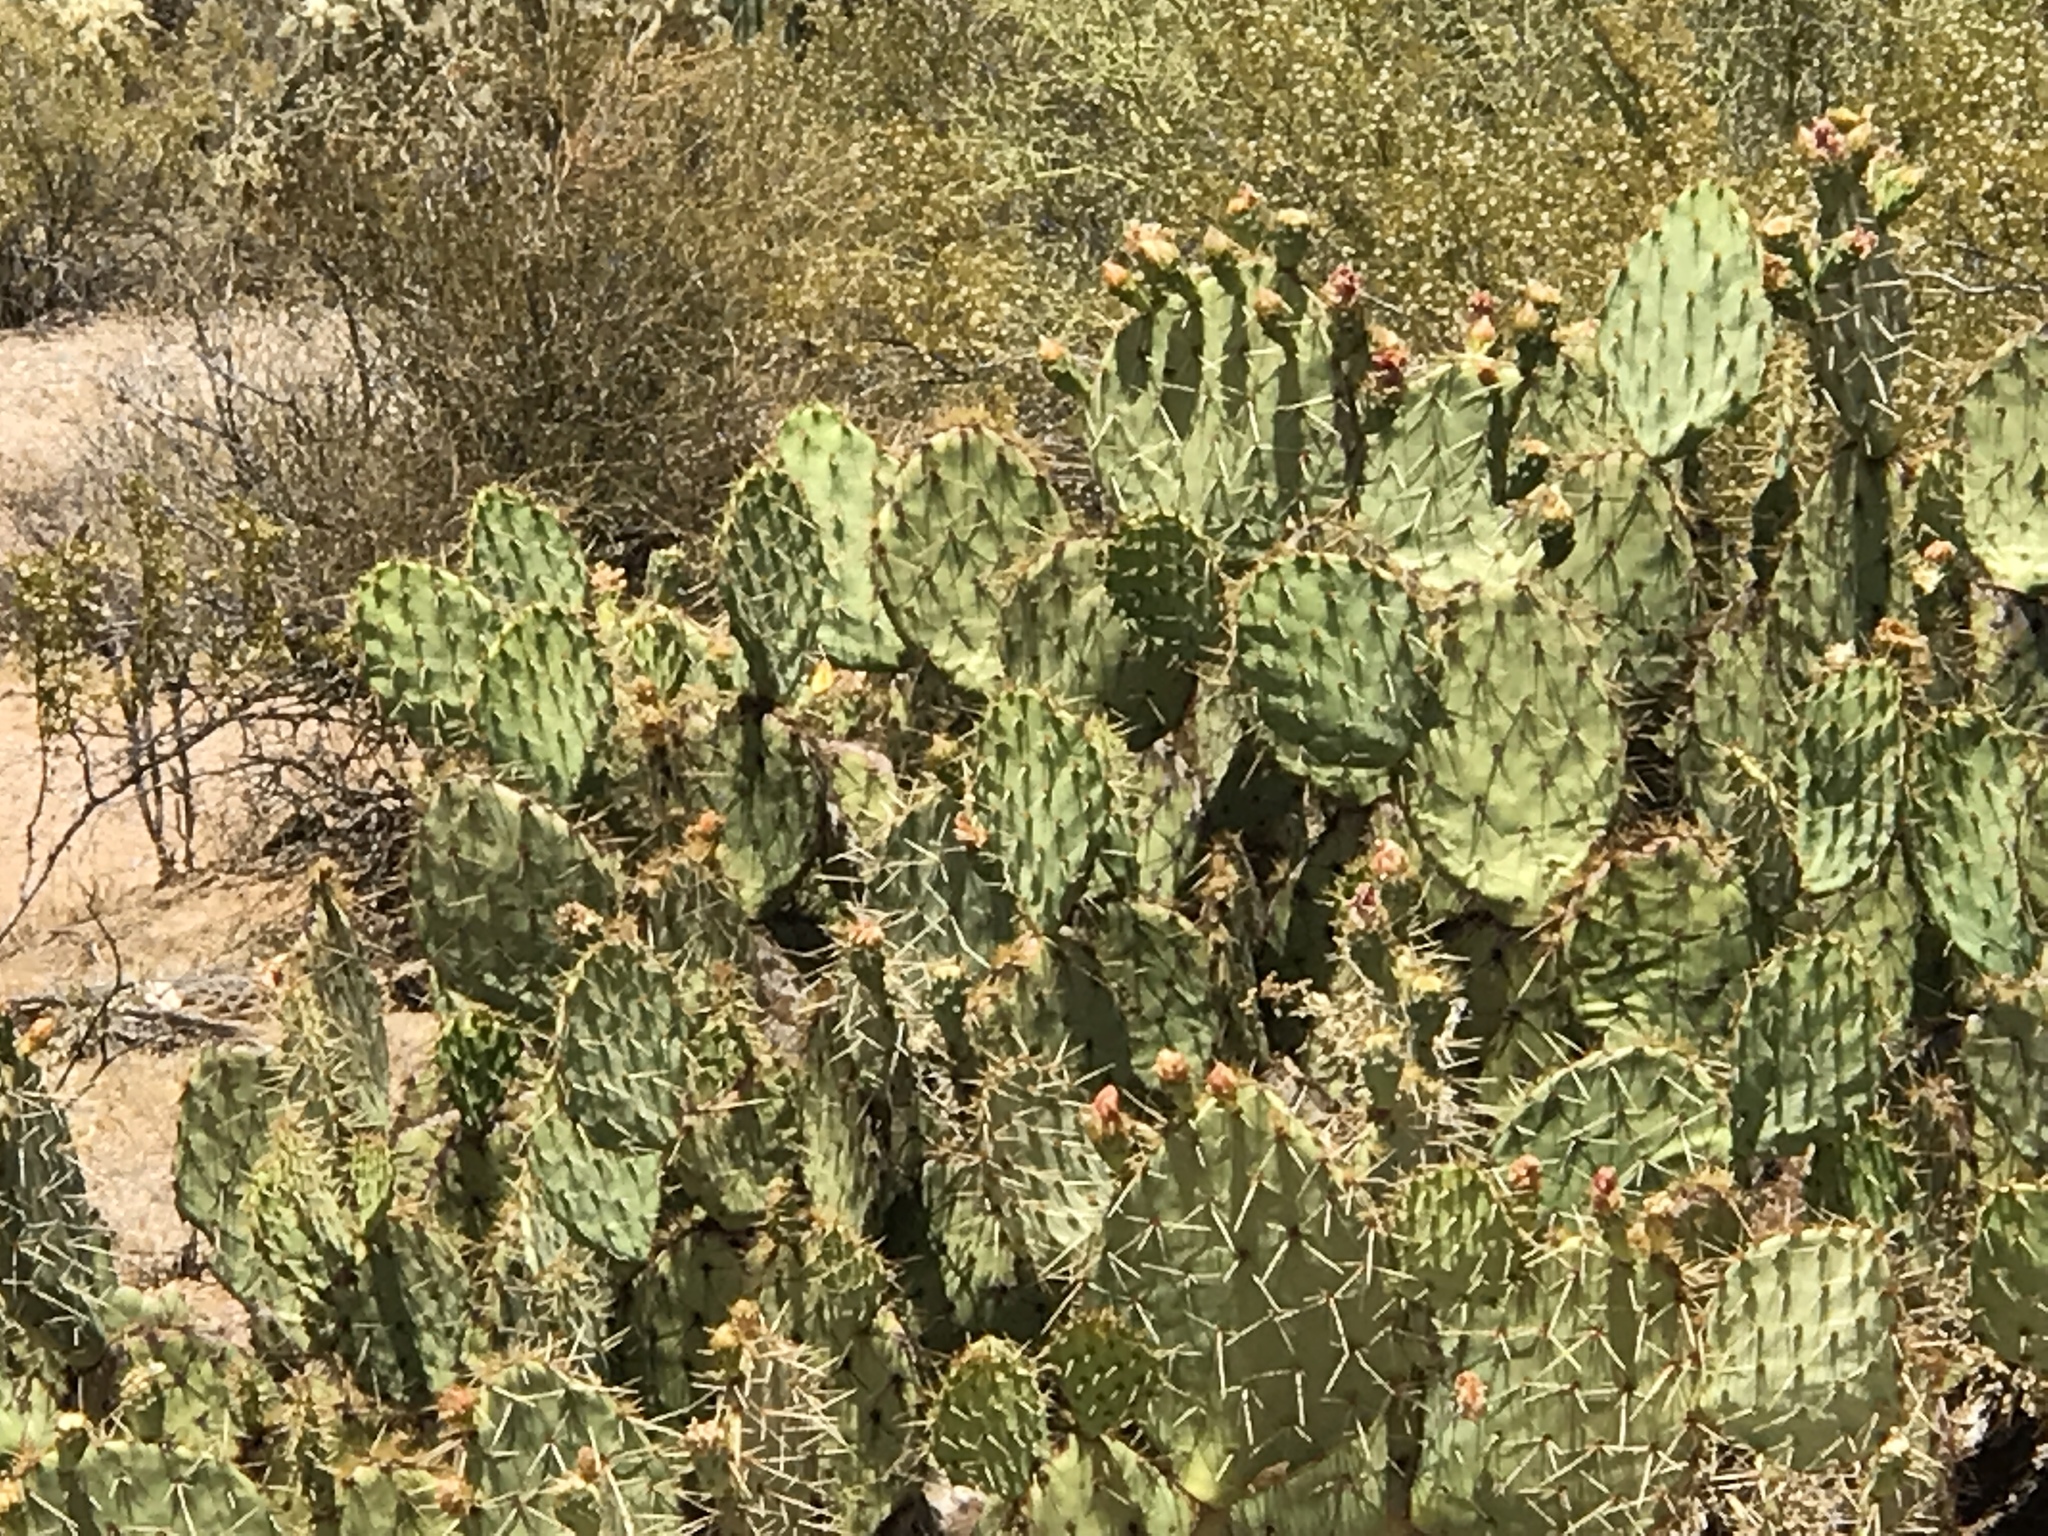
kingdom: Plantae
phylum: Tracheophyta
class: Magnoliopsida
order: Caryophyllales
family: Cactaceae
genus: Opuntia
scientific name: Opuntia engelmannii
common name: Cactus-apple
